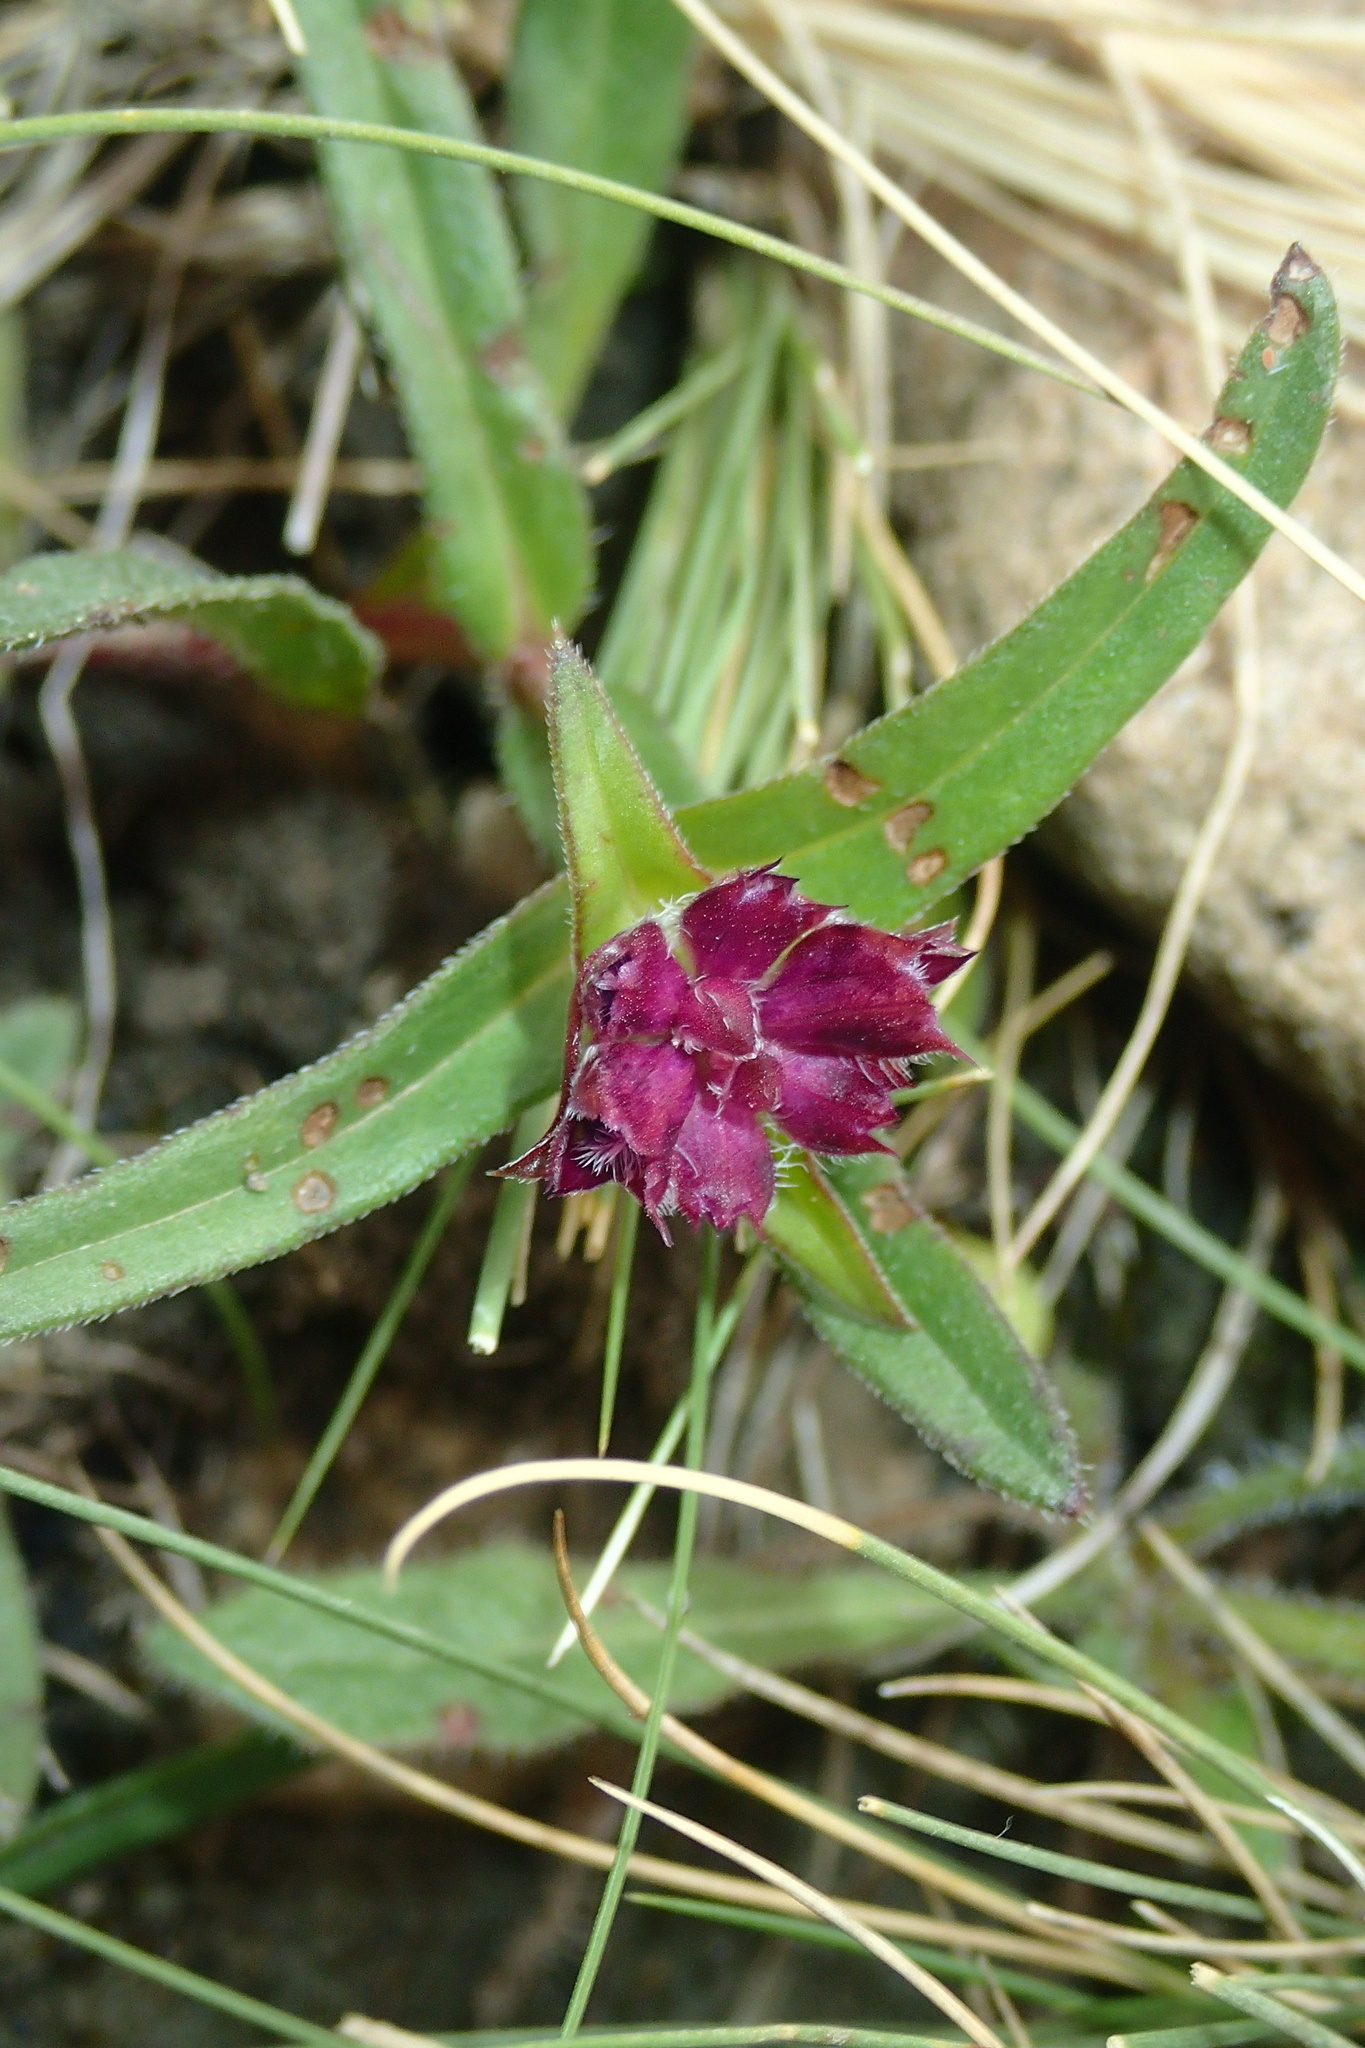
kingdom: Plantae
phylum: Tracheophyta
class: Magnoliopsida
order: Lamiales
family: Lamiaceae
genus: Prunella
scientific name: Prunella hyssopifolia
